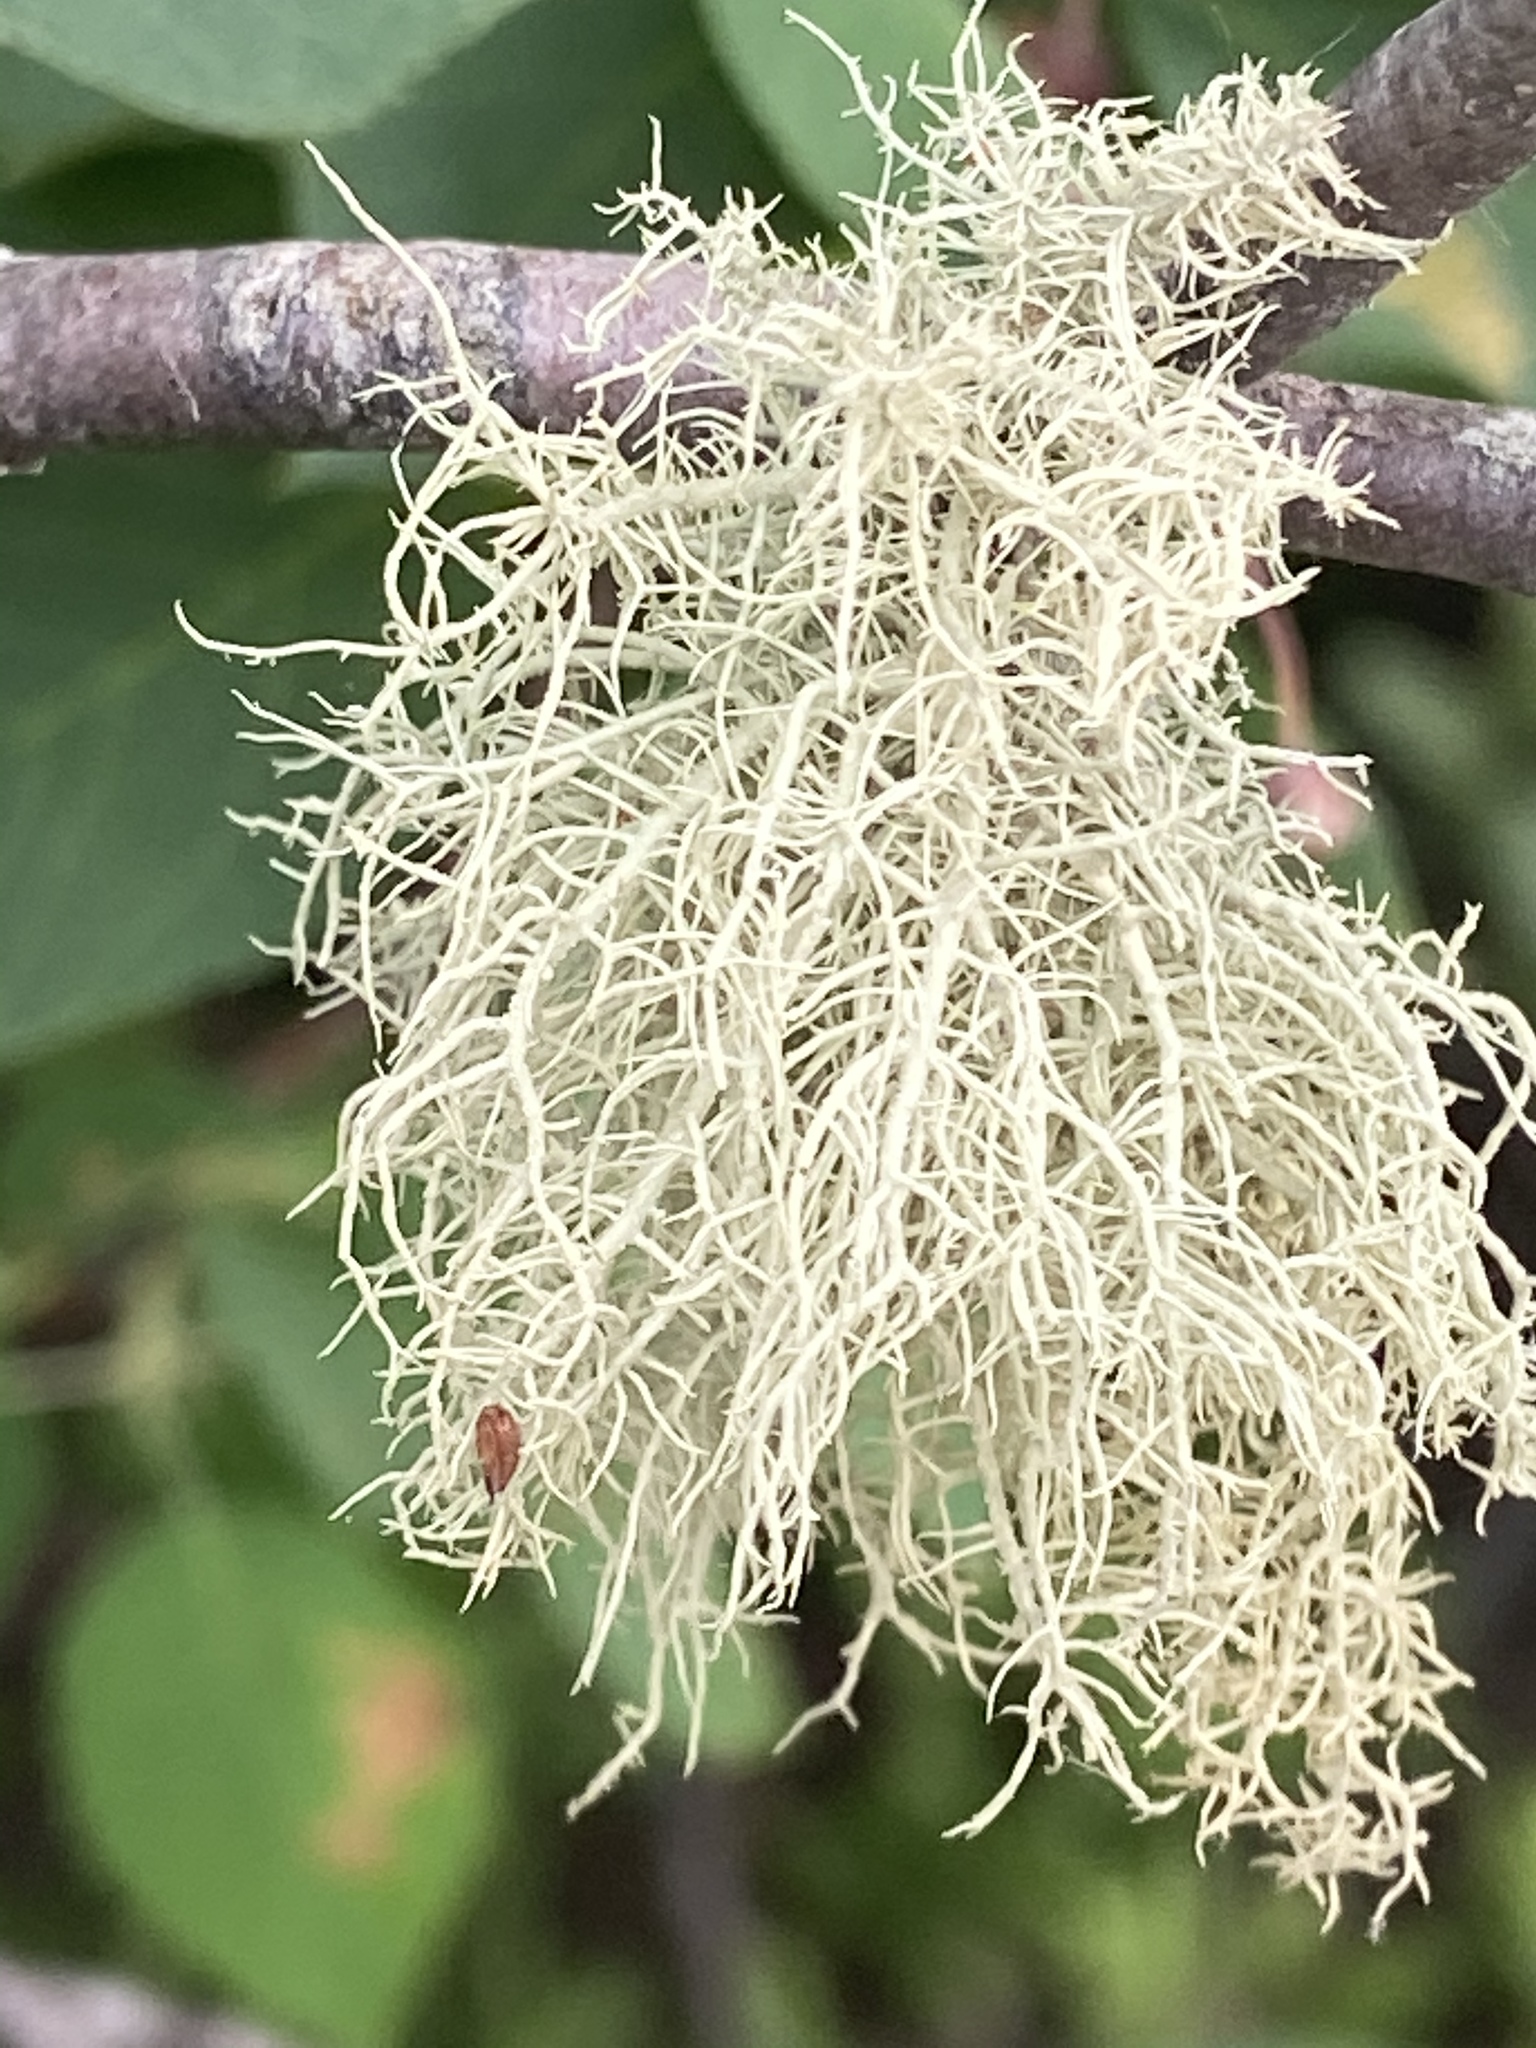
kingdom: Fungi
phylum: Ascomycota
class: Lecanoromycetes
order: Lecanorales
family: Parmeliaceae
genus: Usnea
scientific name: Usnea hirta
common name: Bristly beard lichen
